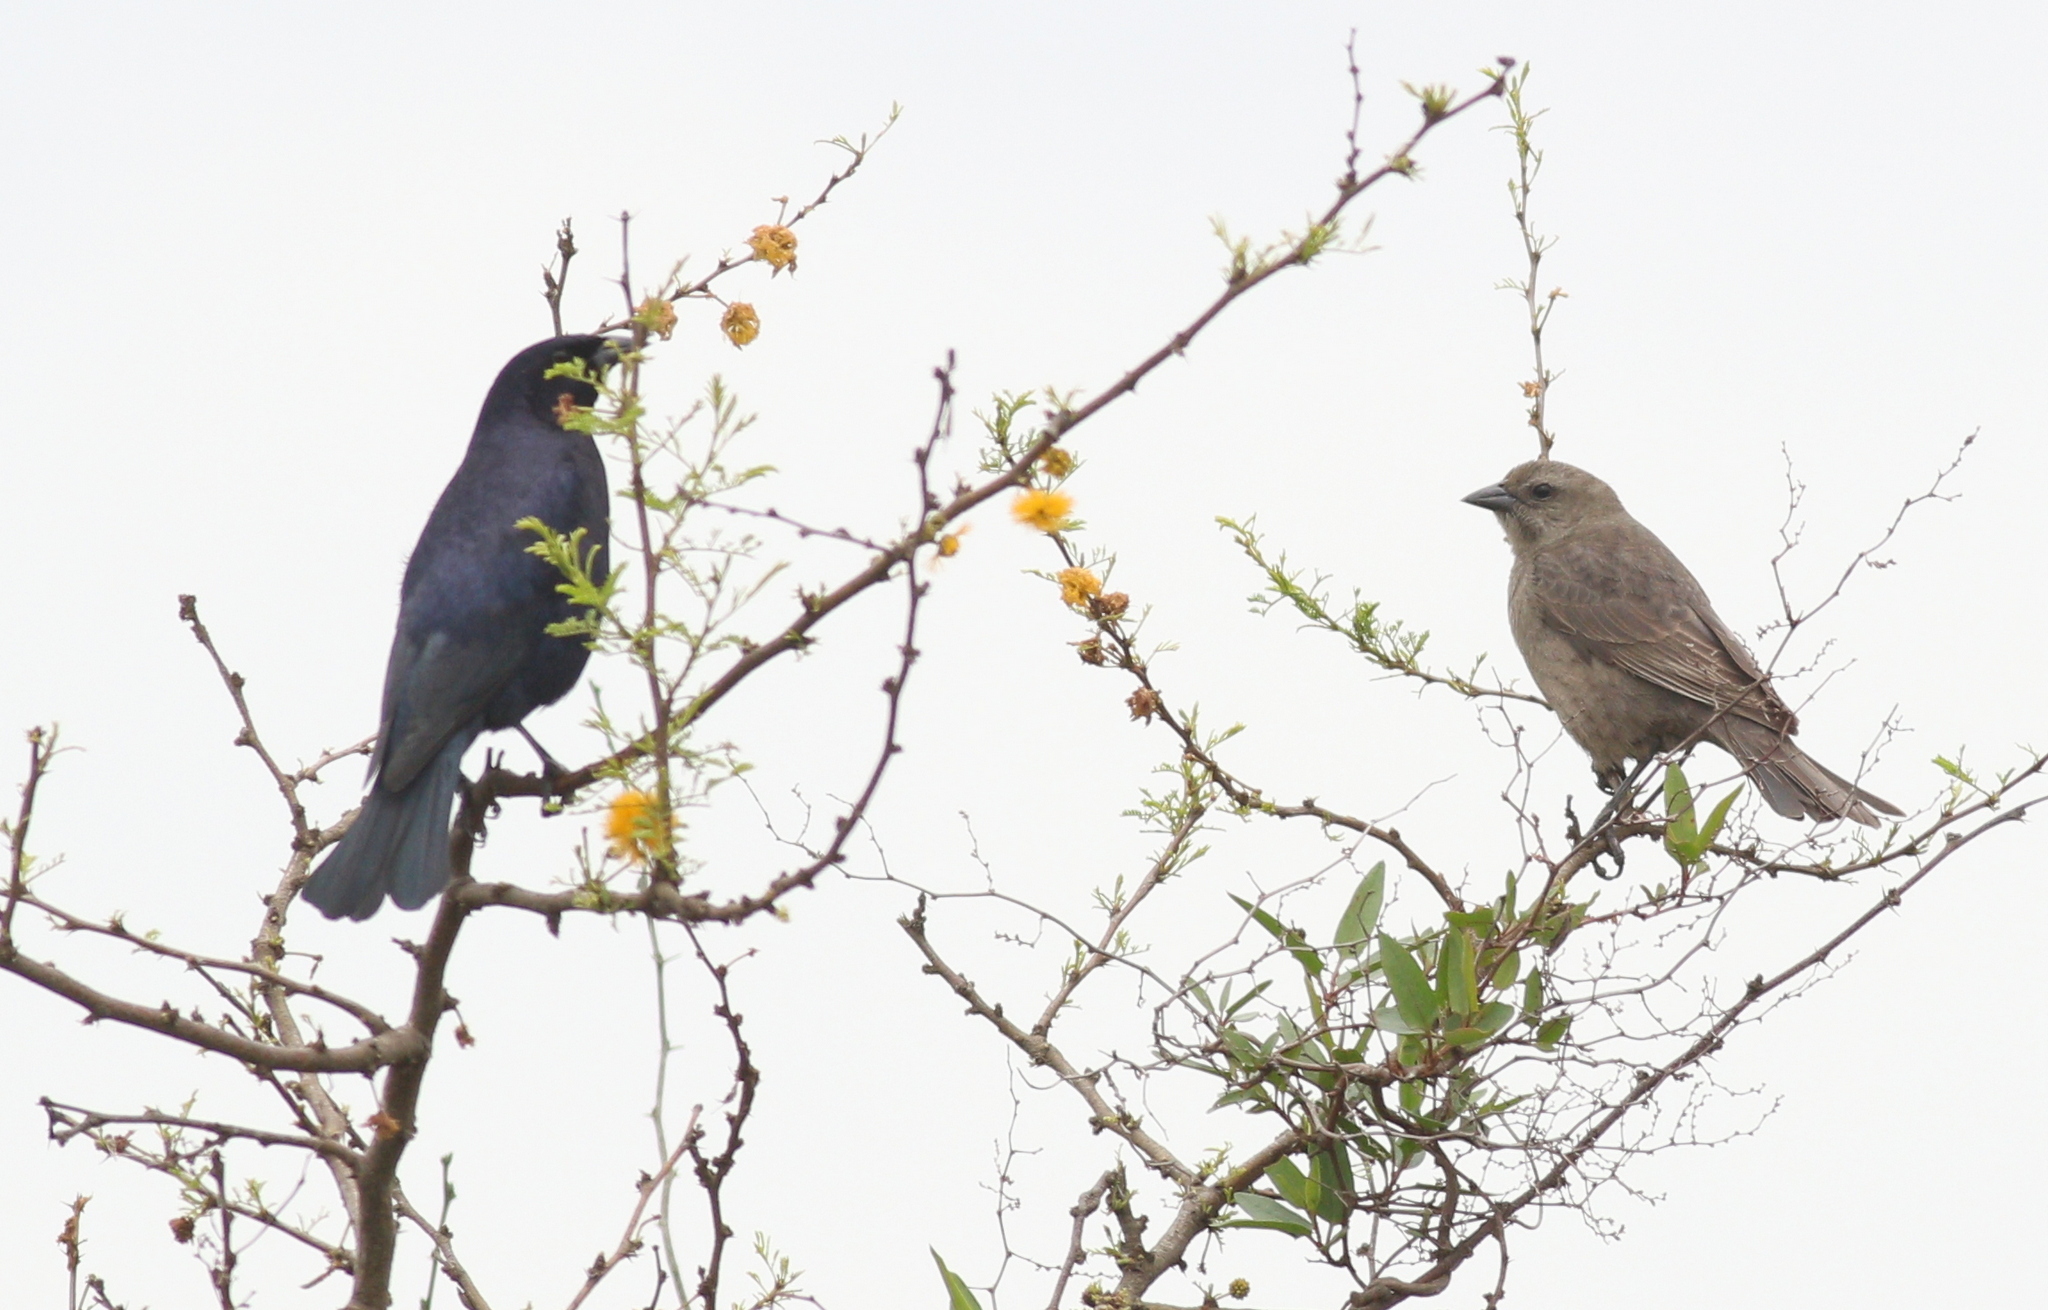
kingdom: Animalia
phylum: Chordata
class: Aves
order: Passeriformes
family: Icteridae
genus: Molothrus
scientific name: Molothrus bonariensis
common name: Shiny cowbird
